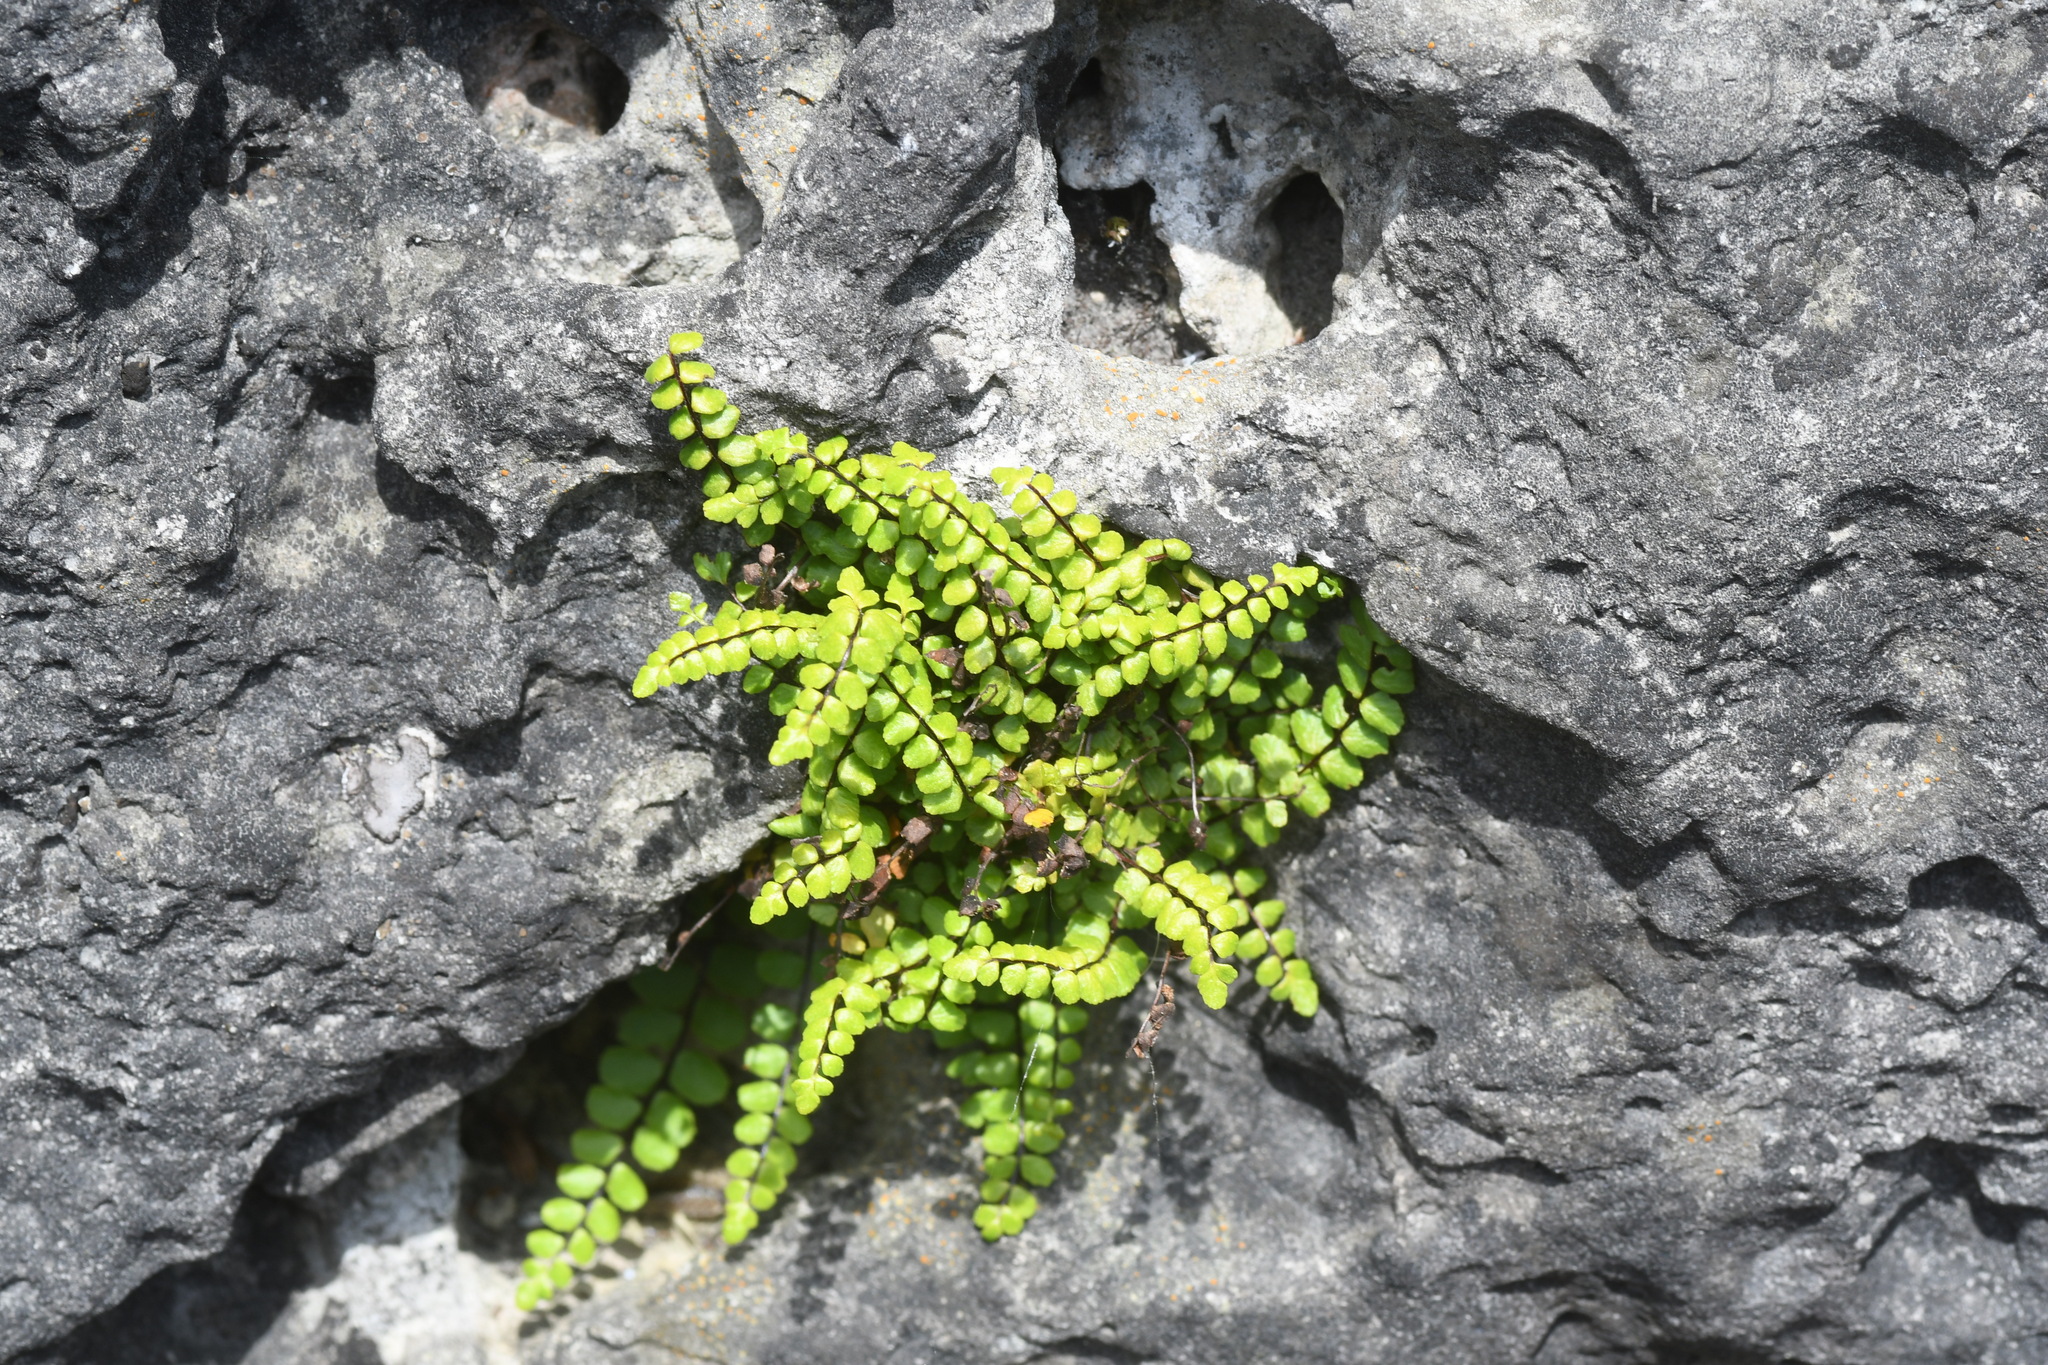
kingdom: Plantae
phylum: Tracheophyta
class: Polypodiopsida
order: Polypodiales
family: Aspleniaceae
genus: Asplenium
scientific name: Asplenium trichomanes
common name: Maidenhair spleenwort
